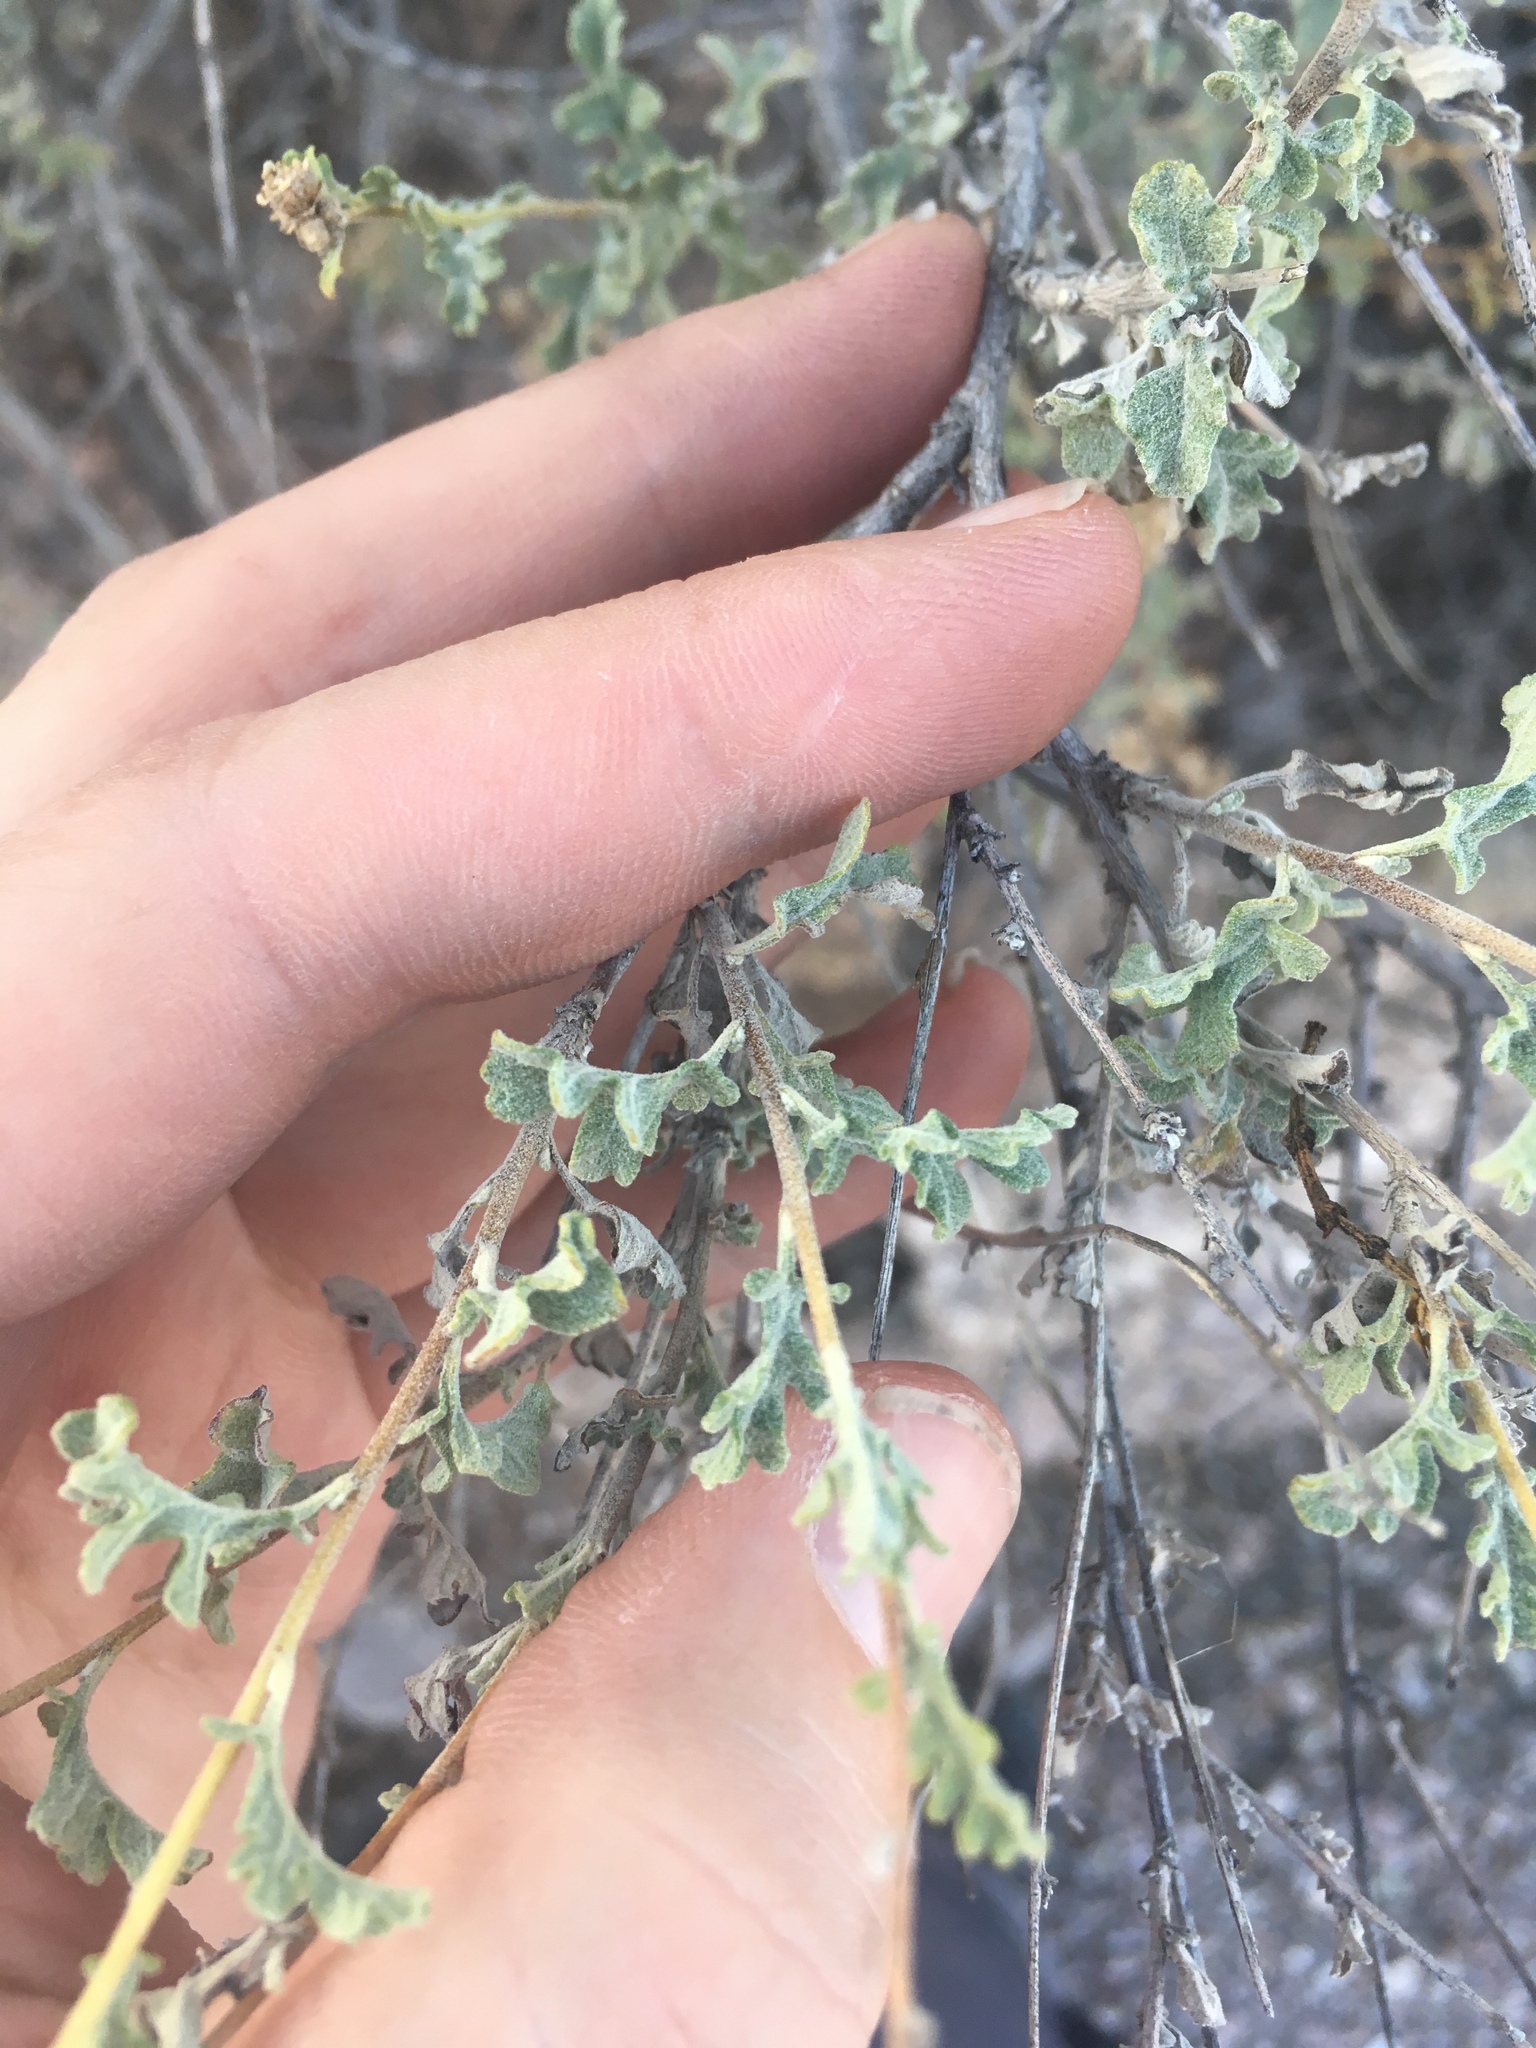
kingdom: Plantae
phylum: Tracheophyta
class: Magnoliopsida
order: Asterales
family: Asteraceae
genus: Parthenium
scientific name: Parthenium incanum
